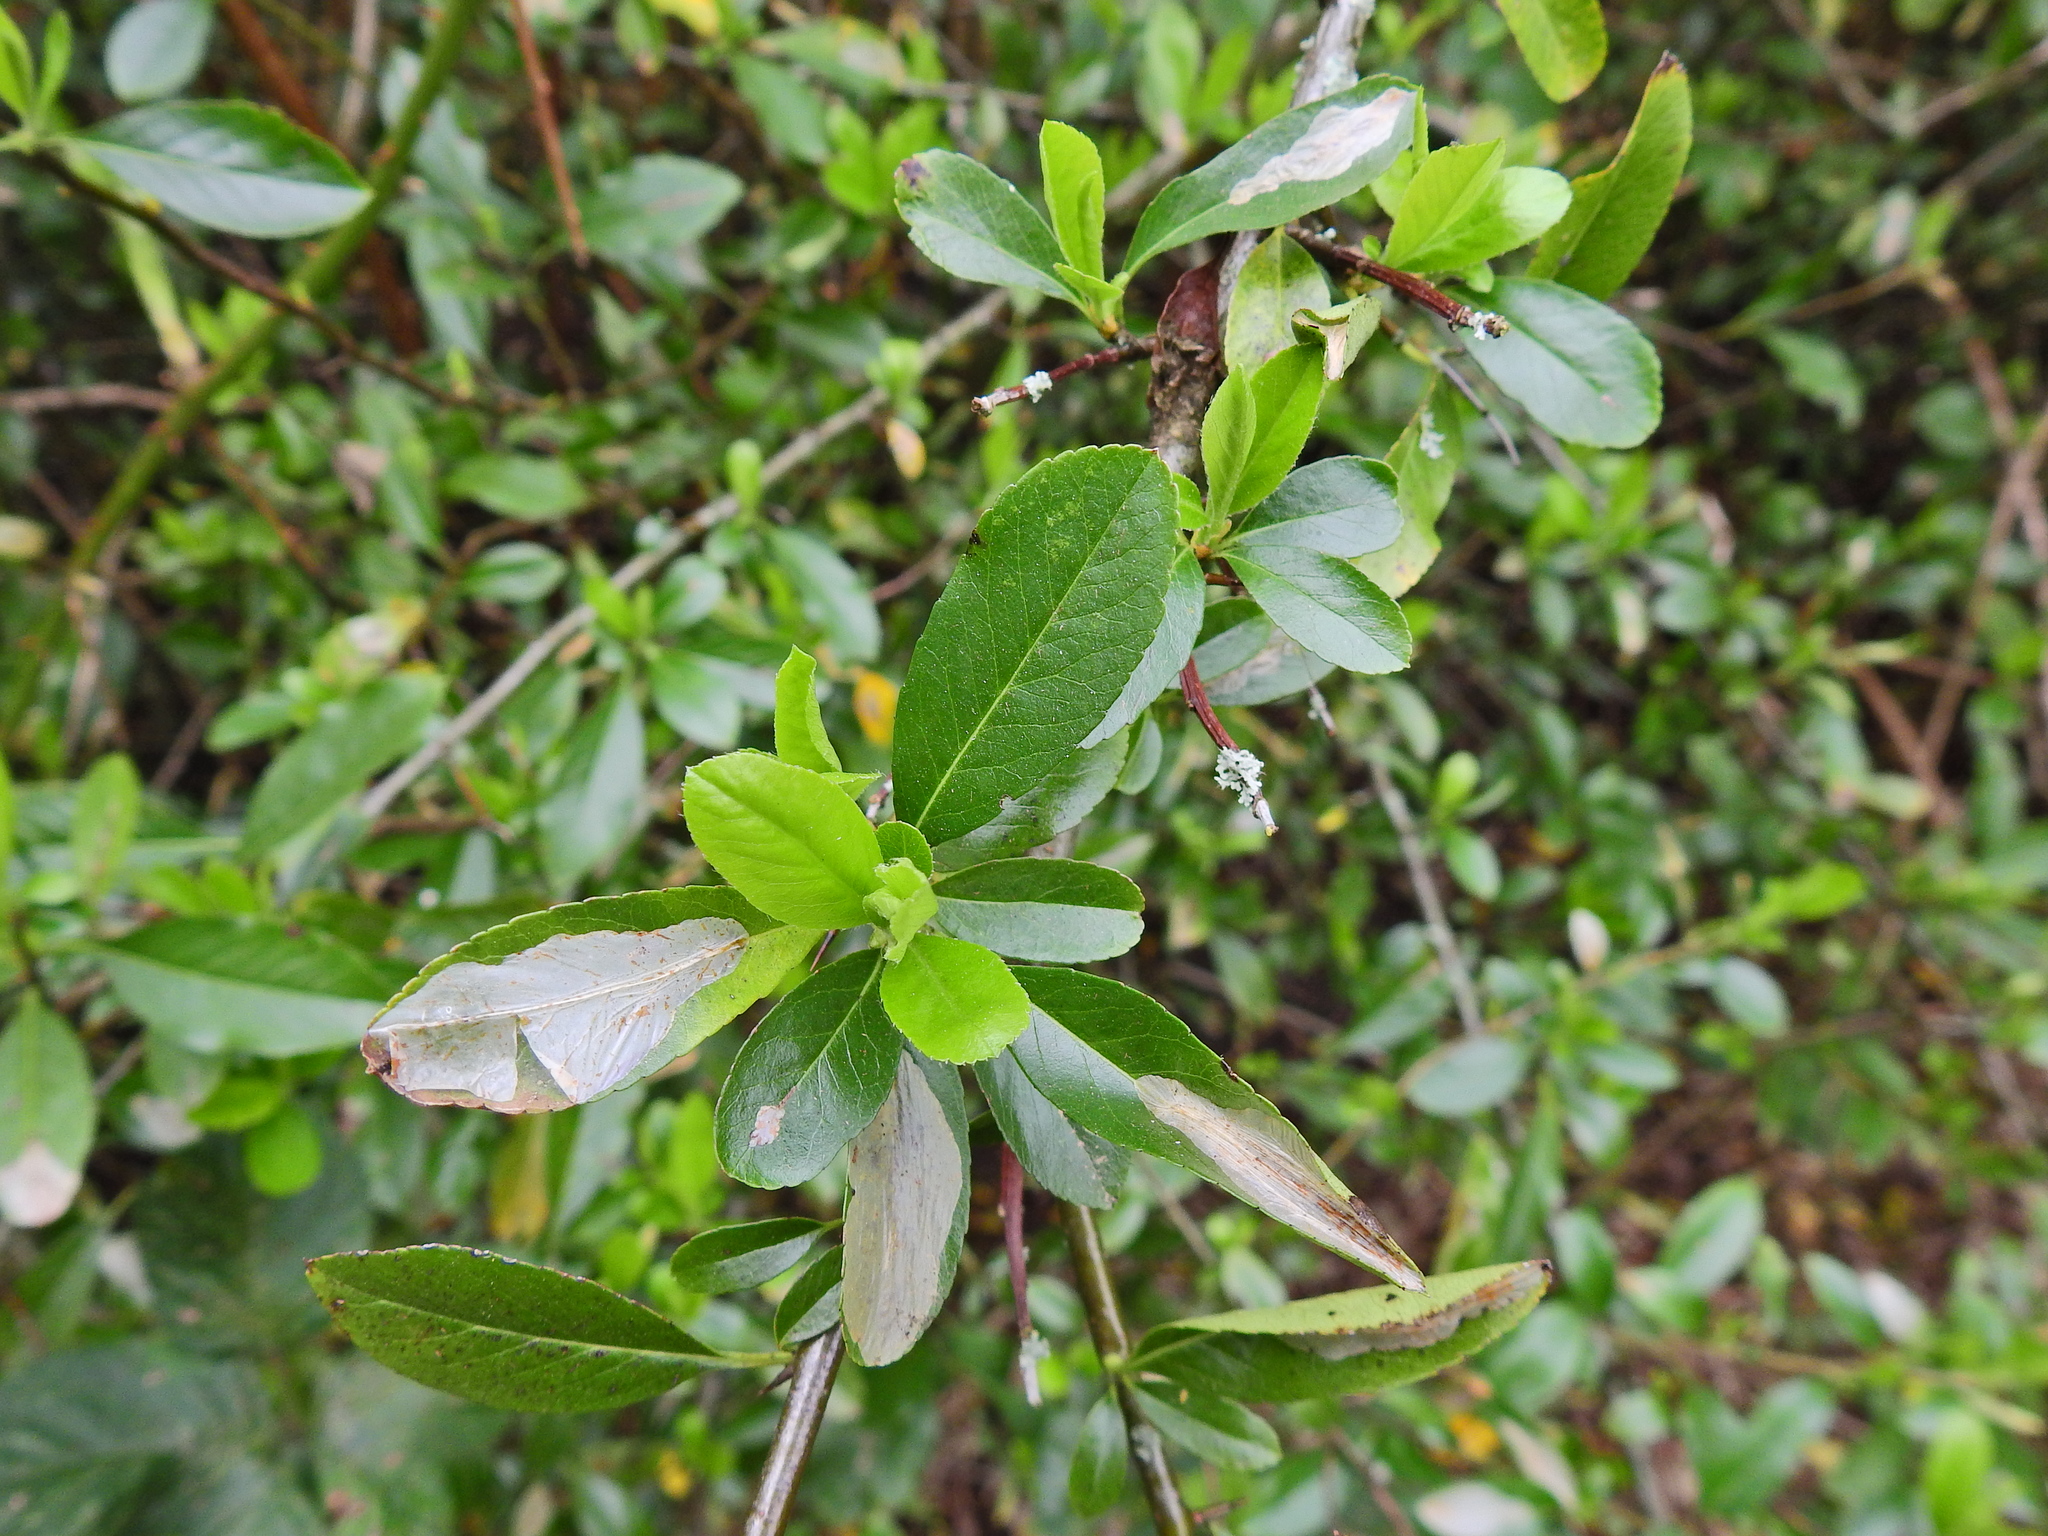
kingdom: Plantae
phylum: Tracheophyta
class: Magnoliopsida
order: Rosales
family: Rosaceae
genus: Pyracantha
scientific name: Pyracantha coccinea
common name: Firethorn
